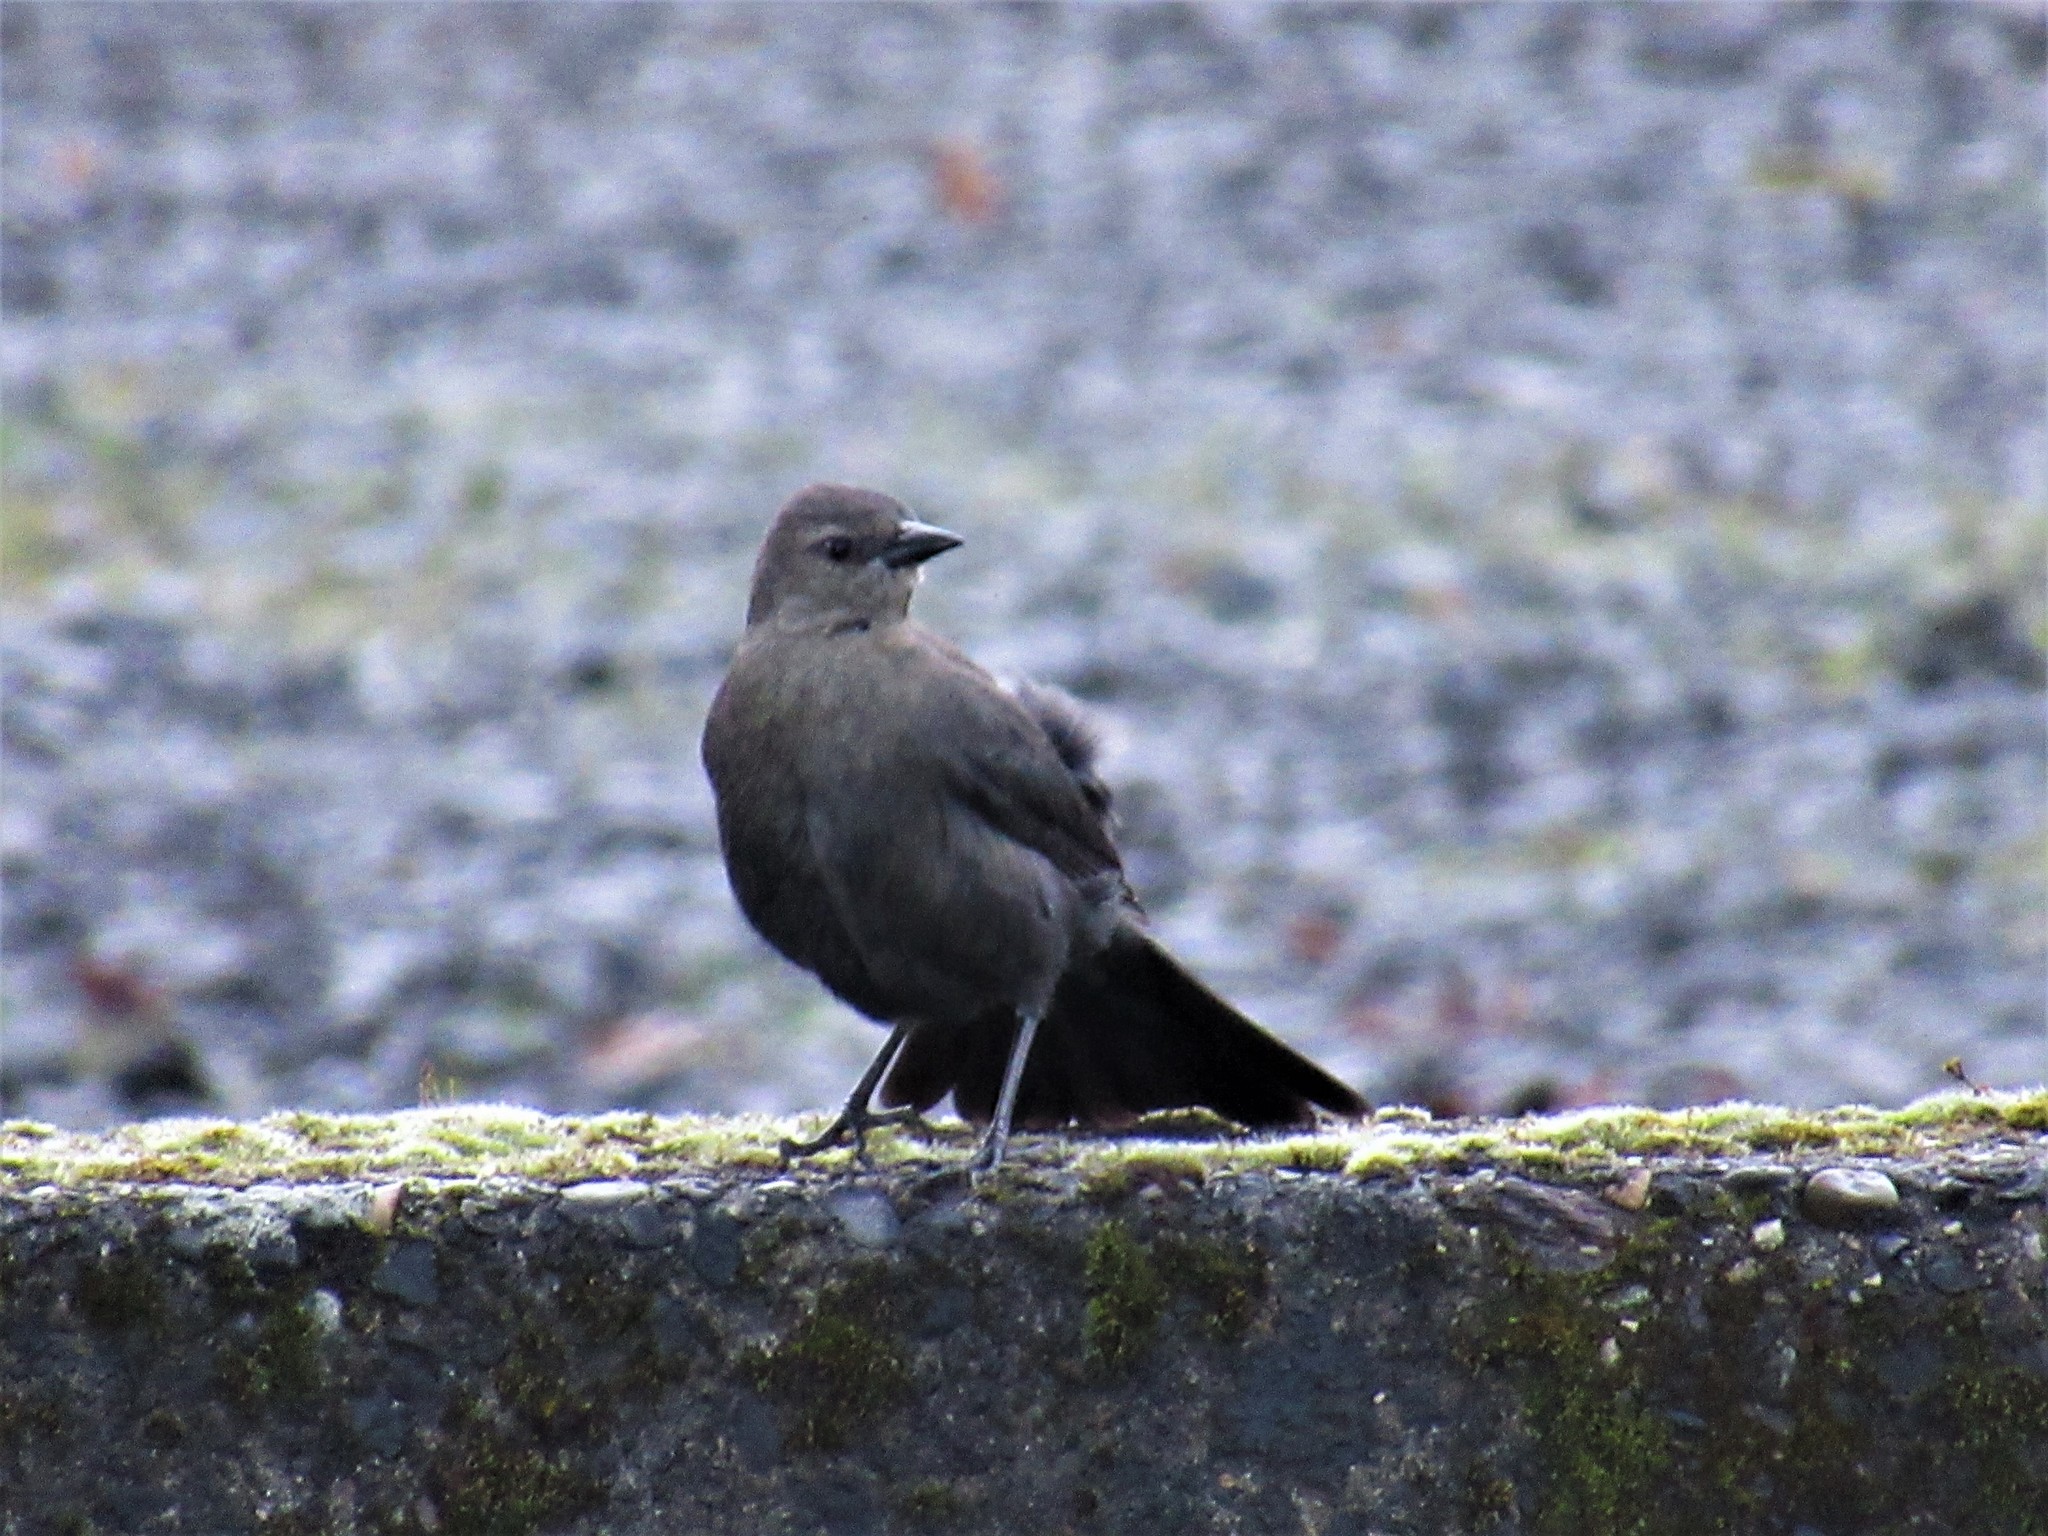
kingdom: Animalia
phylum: Chordata
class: Aves
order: Passeriformes
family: Icteridae
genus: Euphagus
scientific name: Euphagus cyanocephalus
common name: Brewer's blackbird
